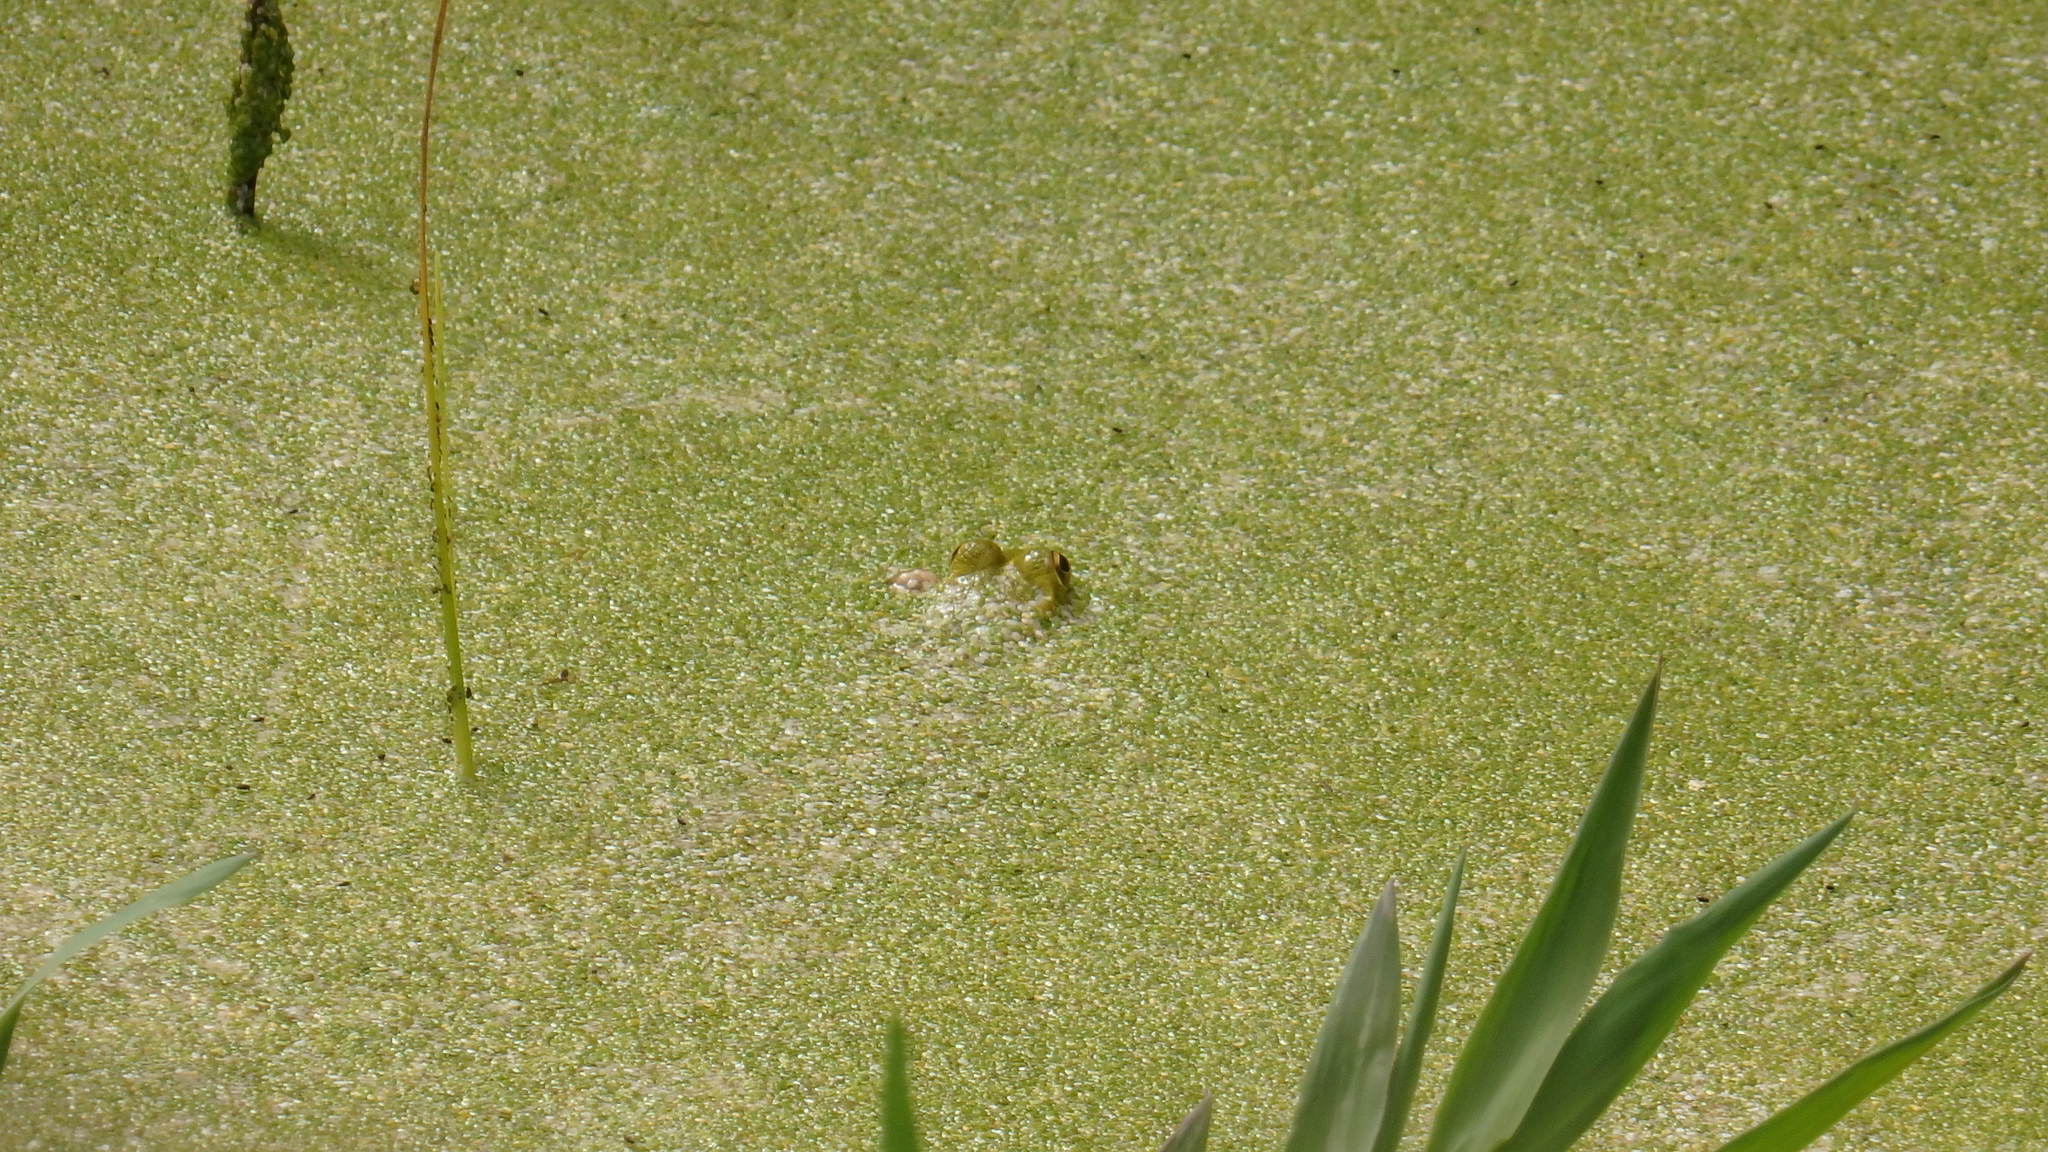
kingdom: Animalia
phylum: Chordata
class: Amphibia
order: Anura
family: Ranidae
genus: Pelophylax
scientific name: Pelophylax perezi
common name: Perez's frog
